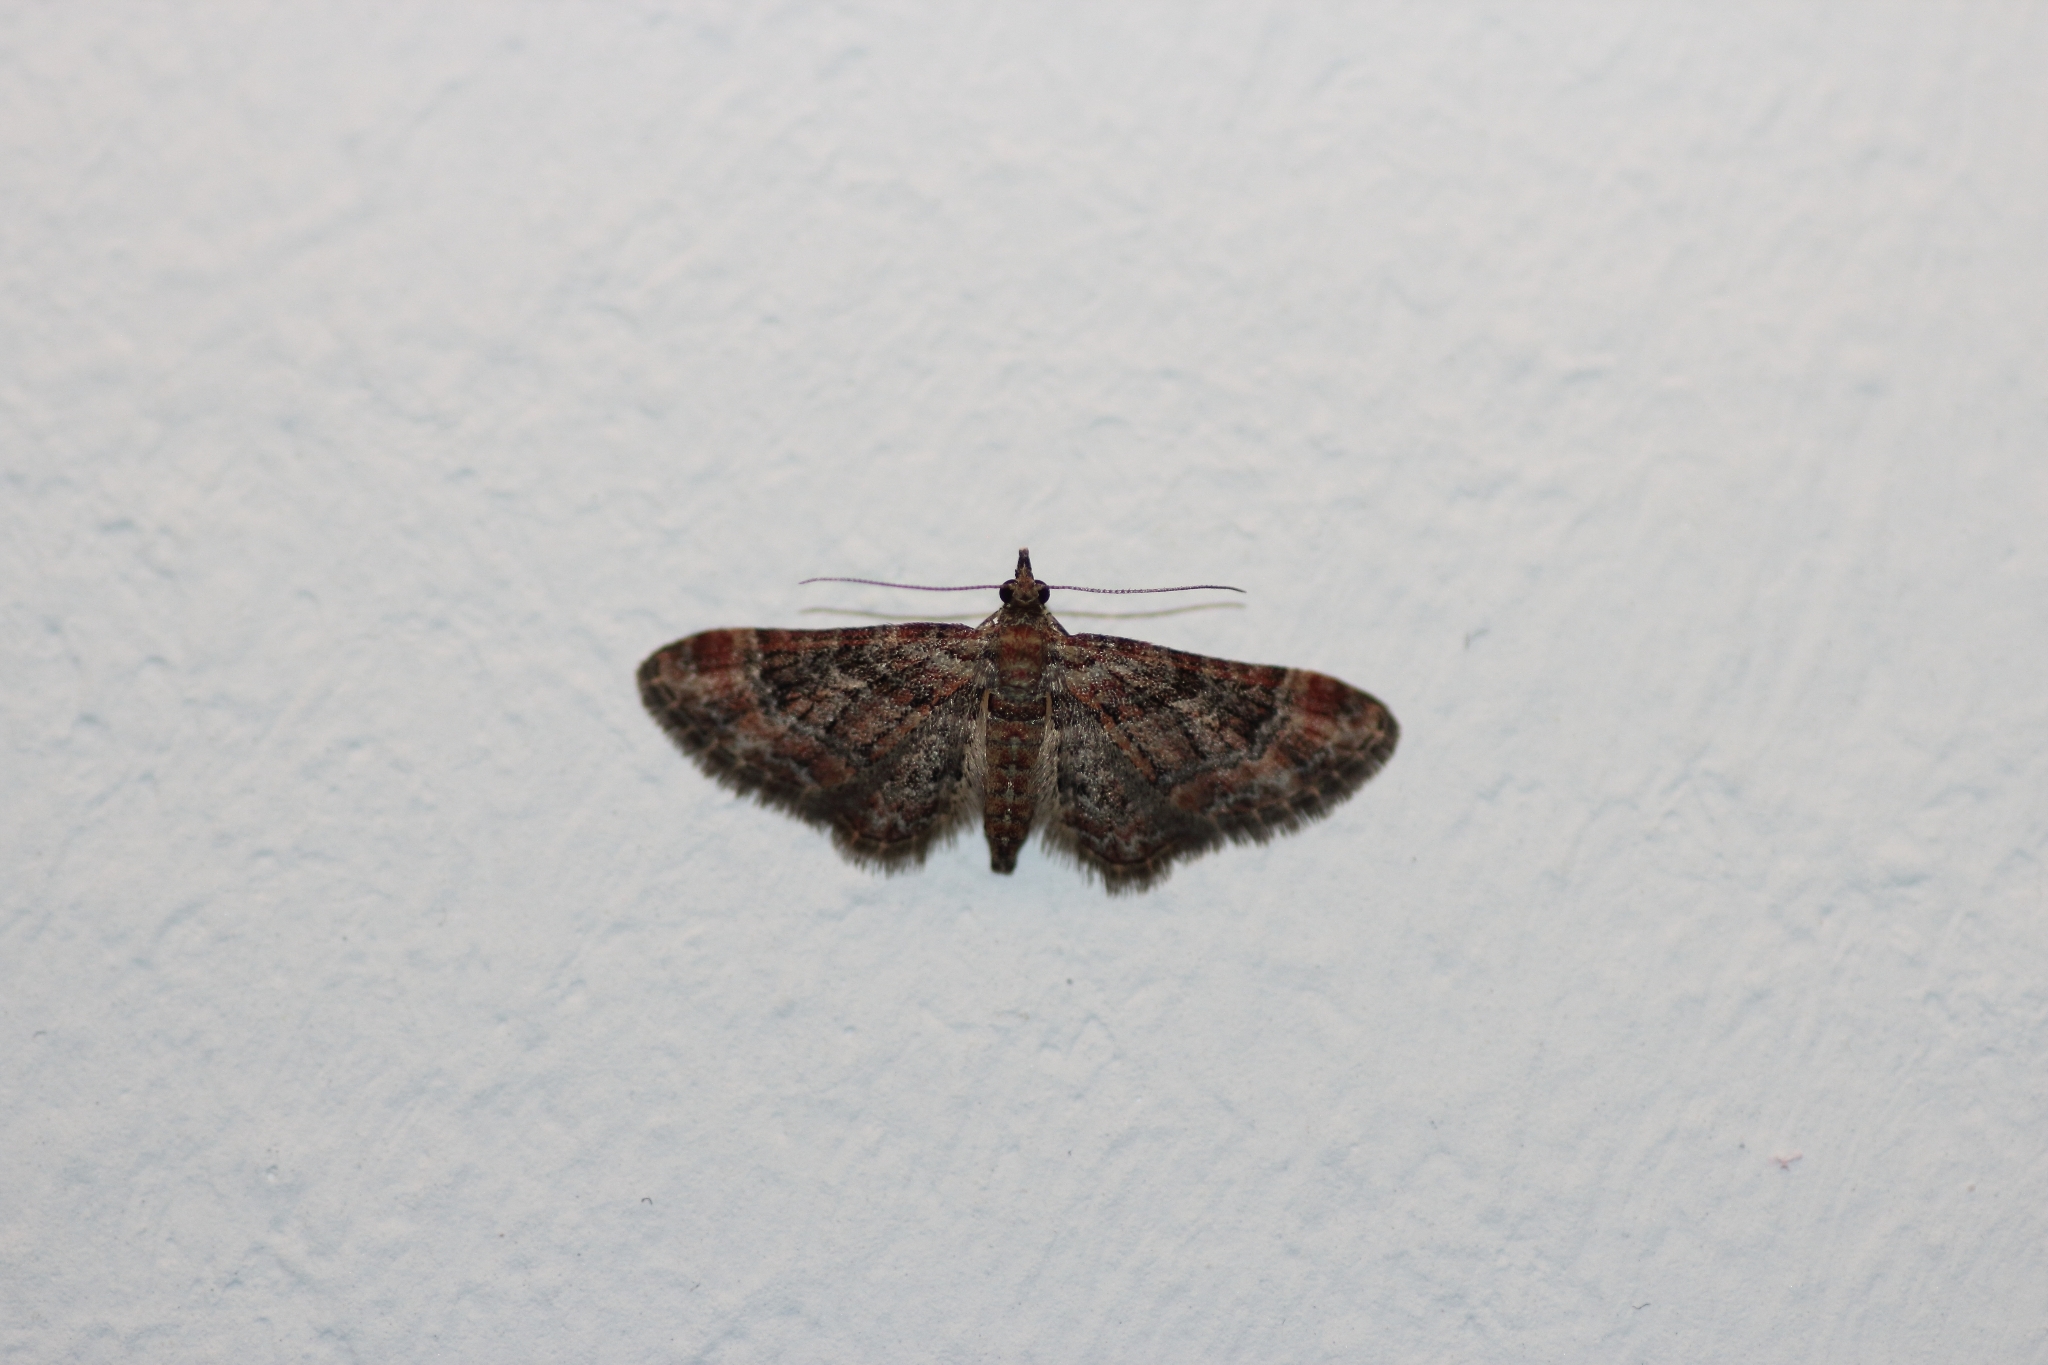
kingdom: Animalia
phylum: Arthropoda
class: Insecta
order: Lepidoptera
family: Geometridae
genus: Gymnoscelis
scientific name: Gymnoscelis rufifasciata
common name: Double-striped pug
